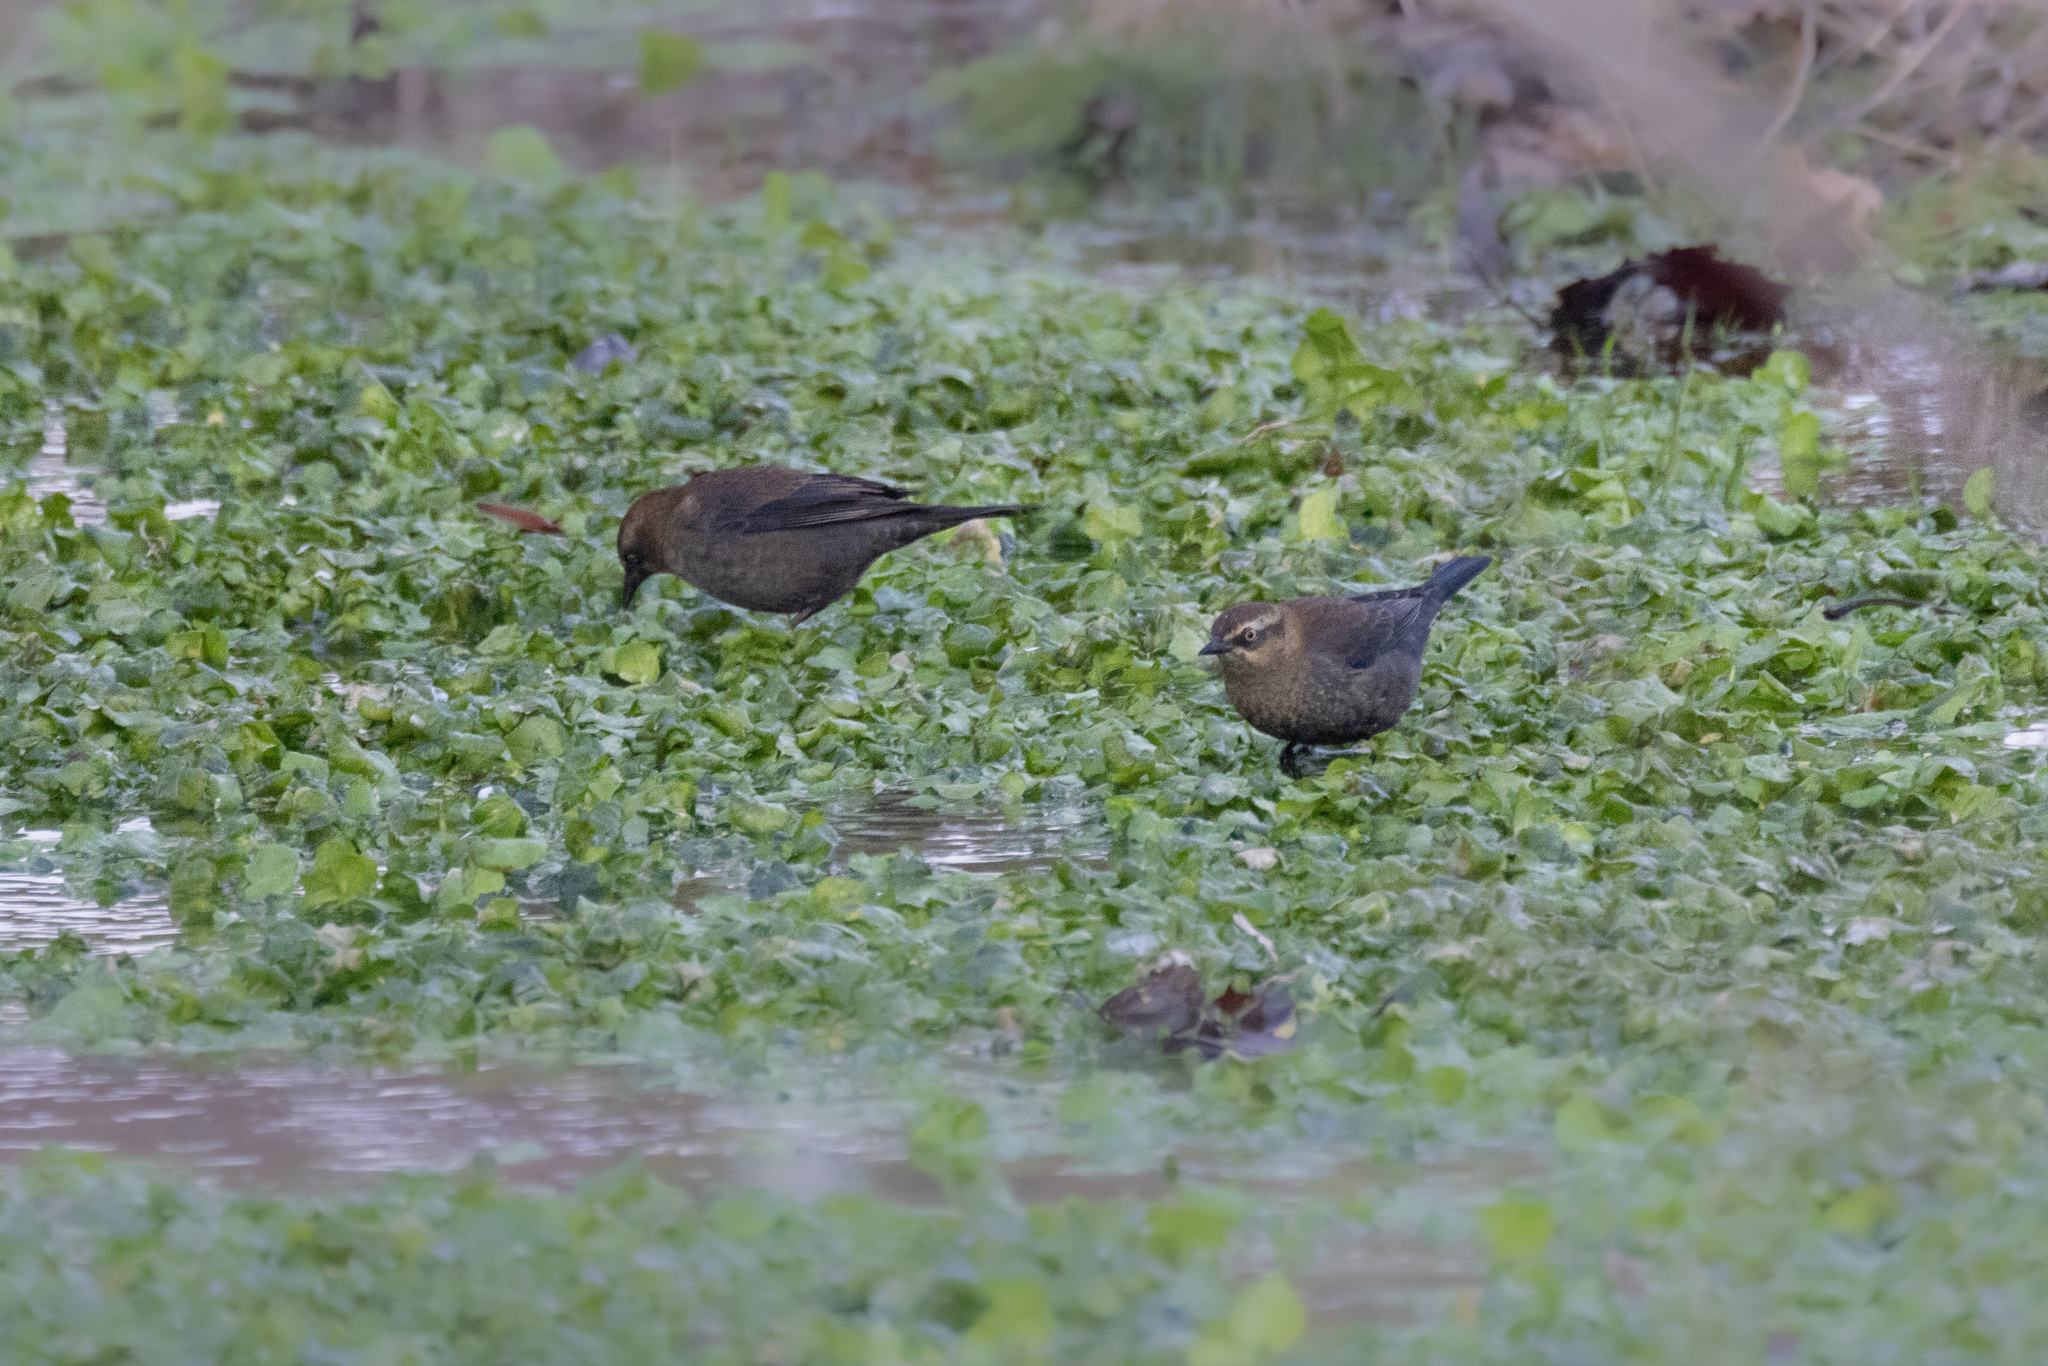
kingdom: Animalia
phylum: Chordata
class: Aves
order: Passeriformes
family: Icteridae
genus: Euphagus
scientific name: Euphagus carolinus
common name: Rusty blackbird
